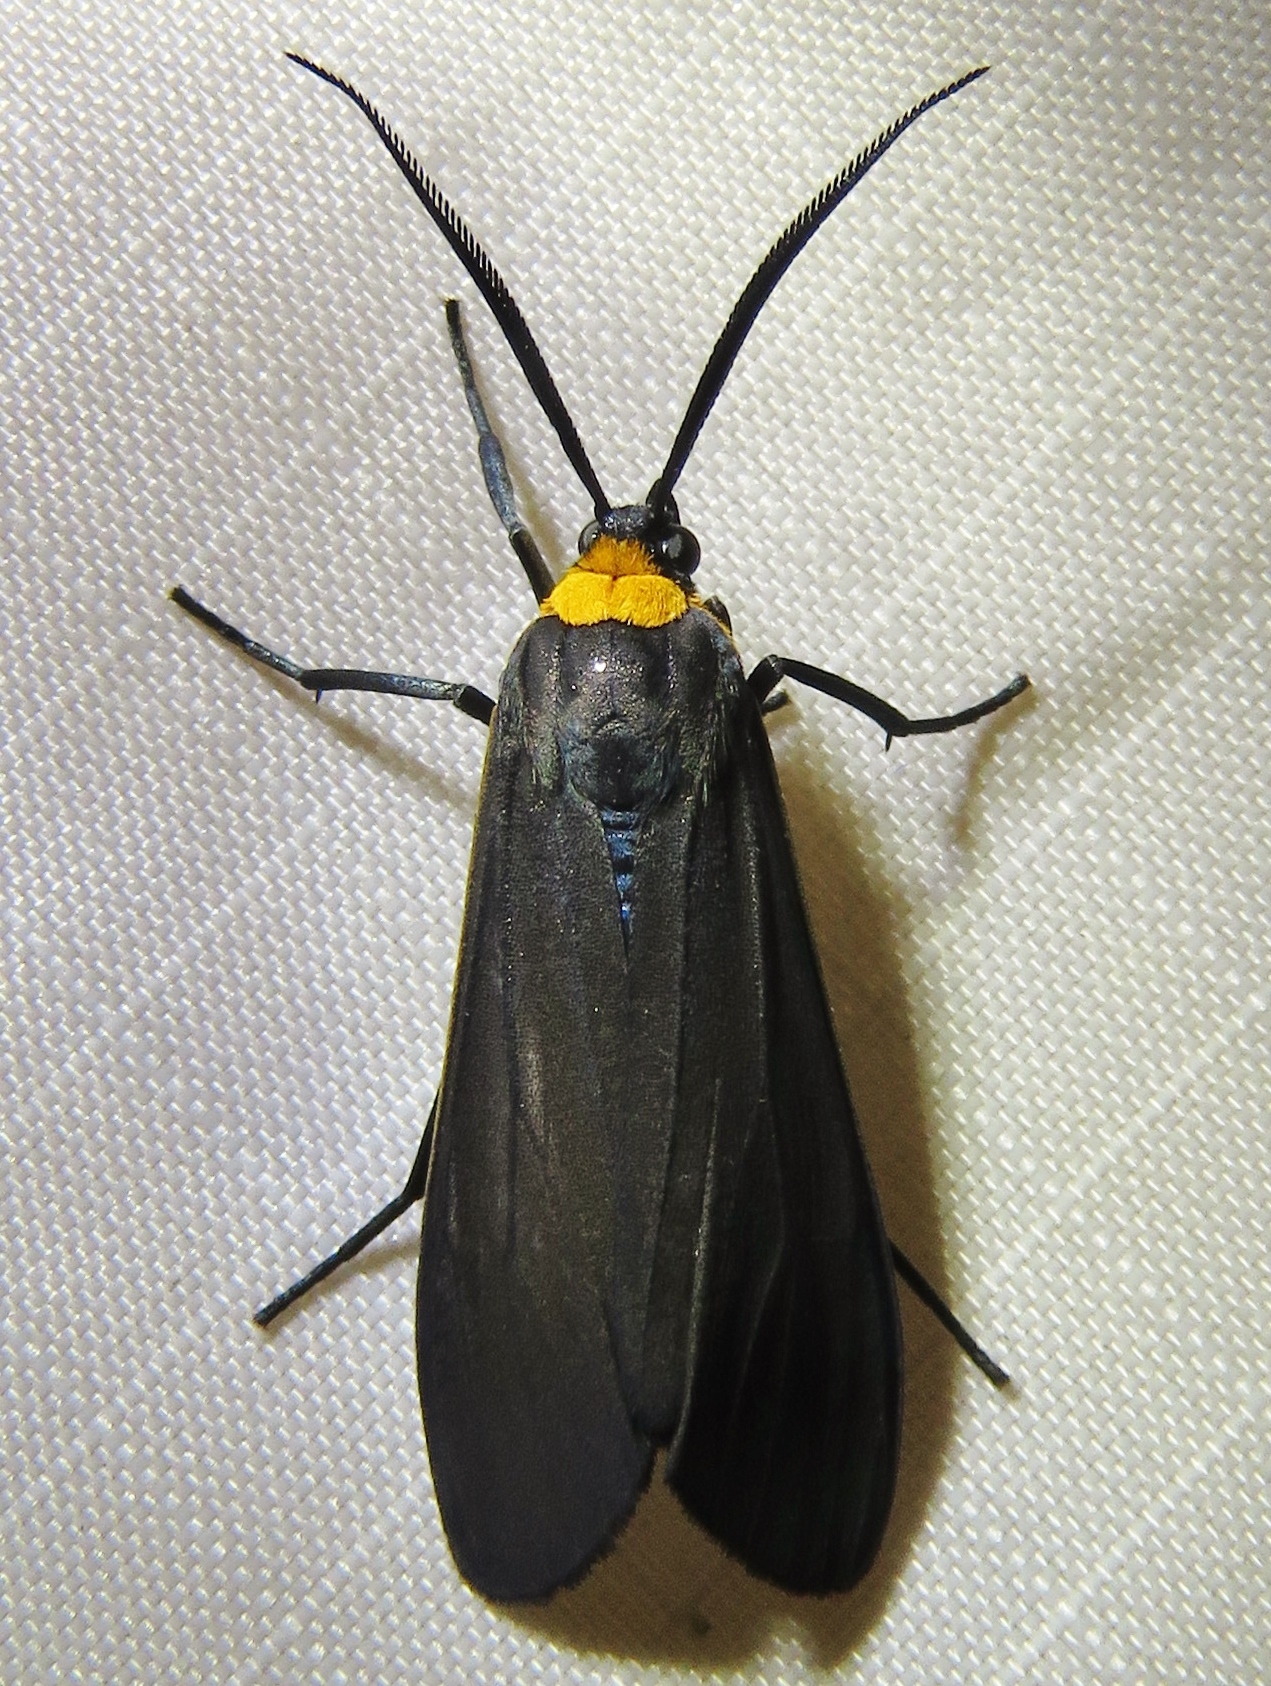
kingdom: Animalia
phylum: Arthropoda
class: Insecta
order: Lepidoptera
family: Erebidae
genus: Cisseps
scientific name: Cisseps fulvicollis
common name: Yellow-collared scape moth
